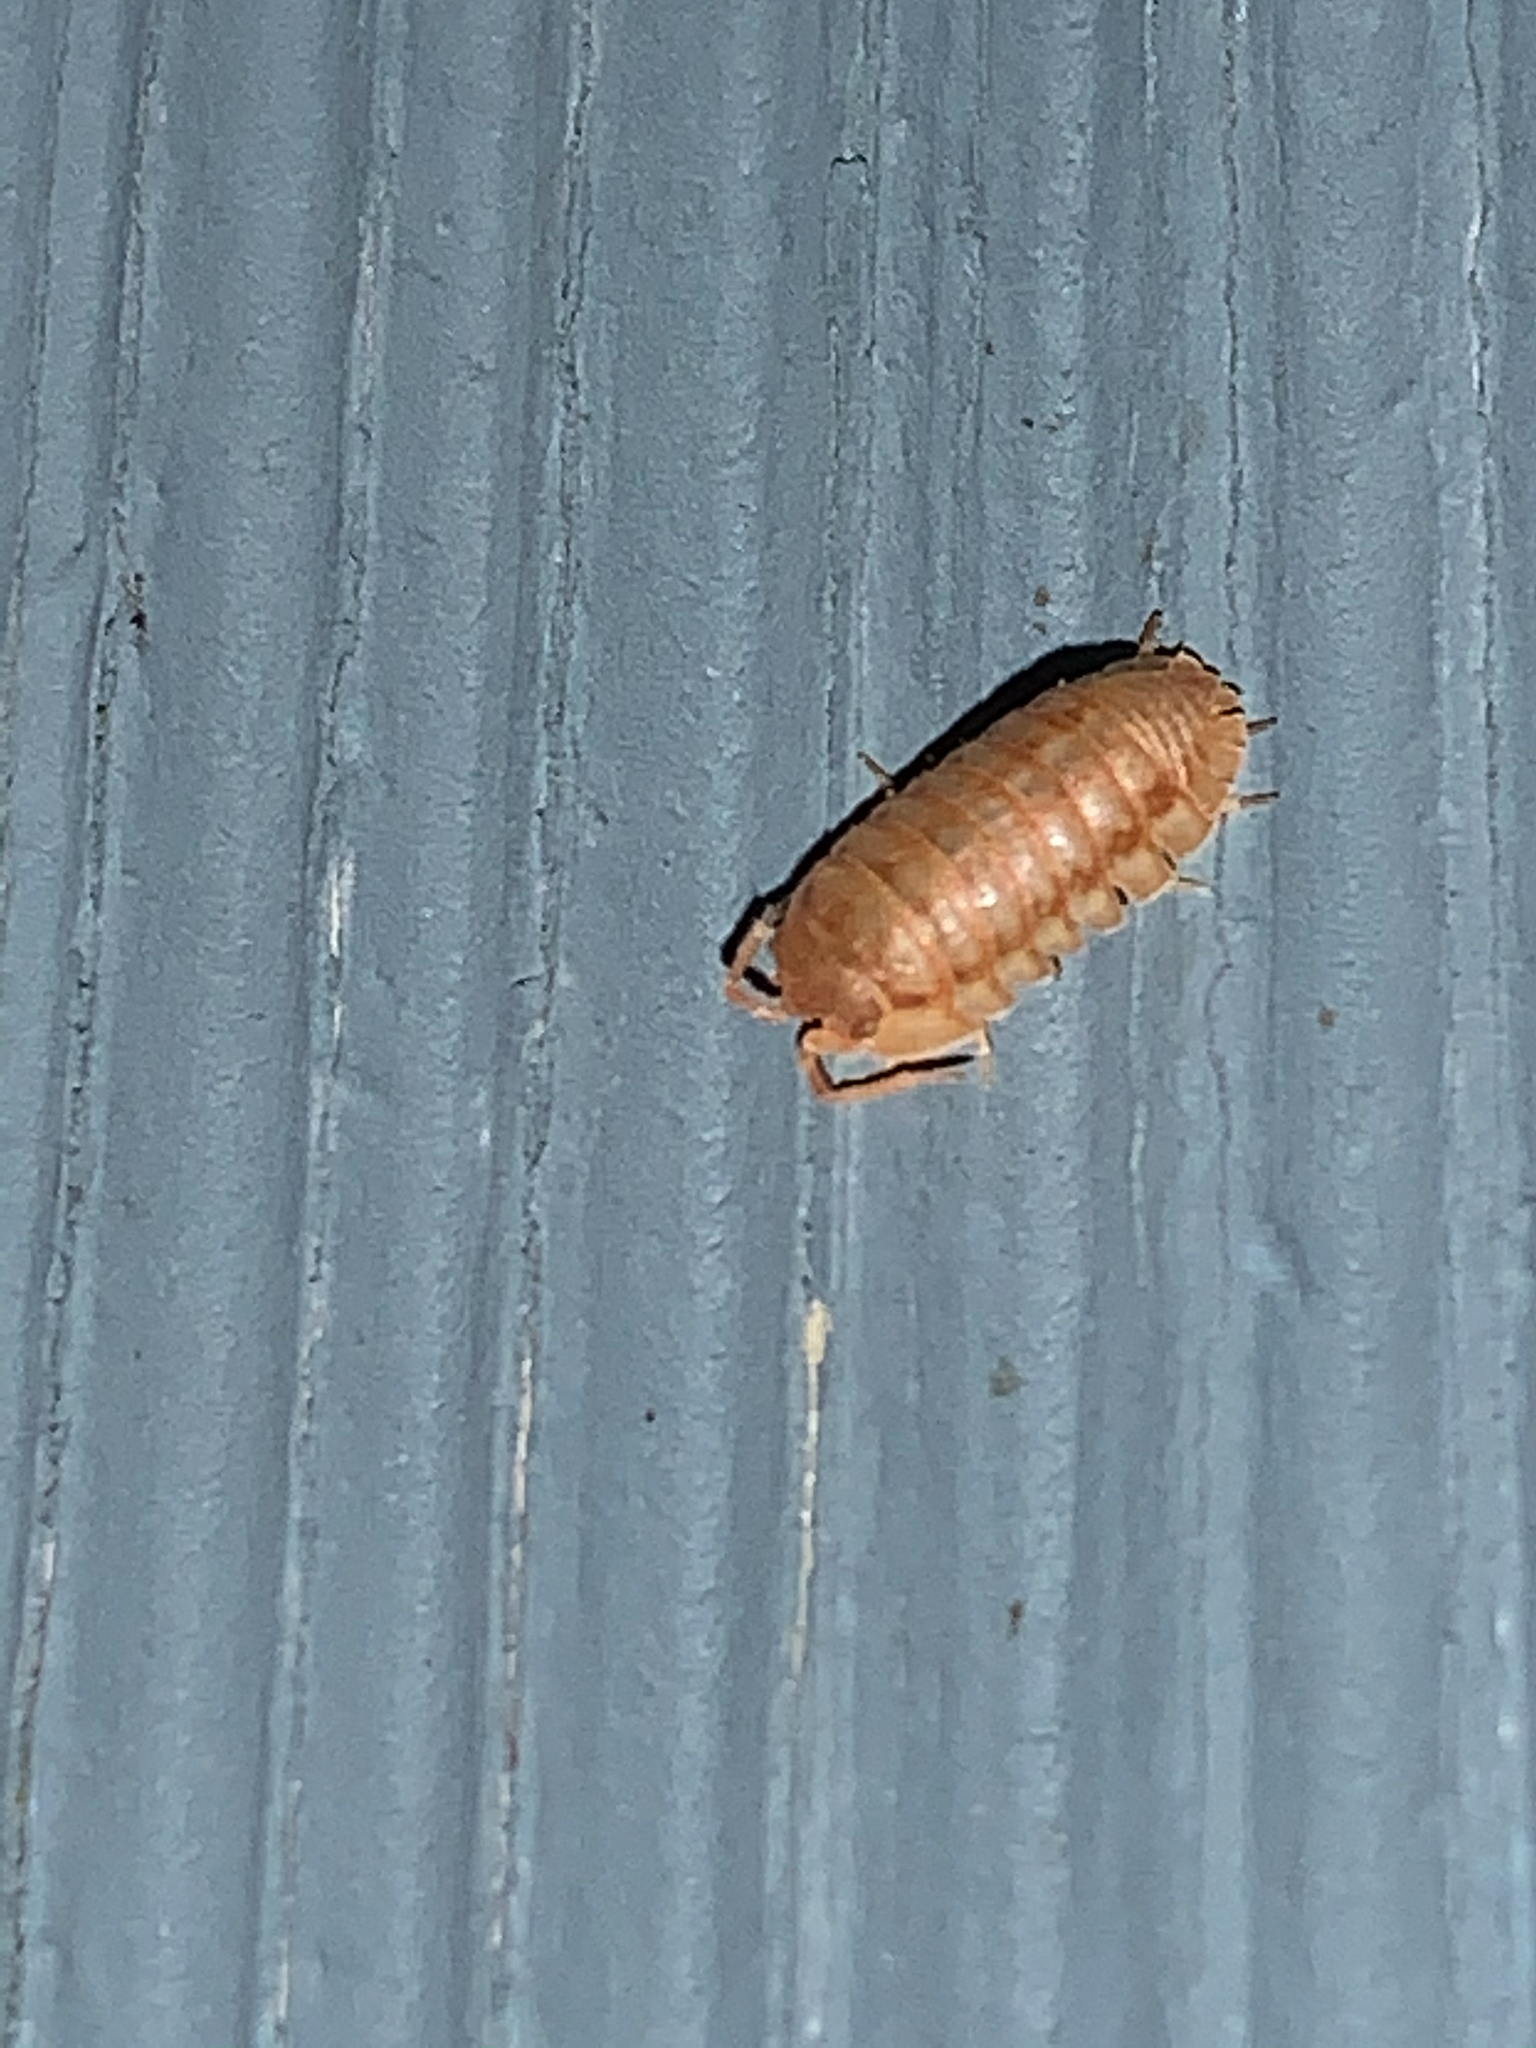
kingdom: Animalia
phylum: Arthropoda
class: Malacostraca
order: Isopoda
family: Armadillidiidae
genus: Armadillidium
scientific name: Armadillidium nasatum
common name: Isopod
